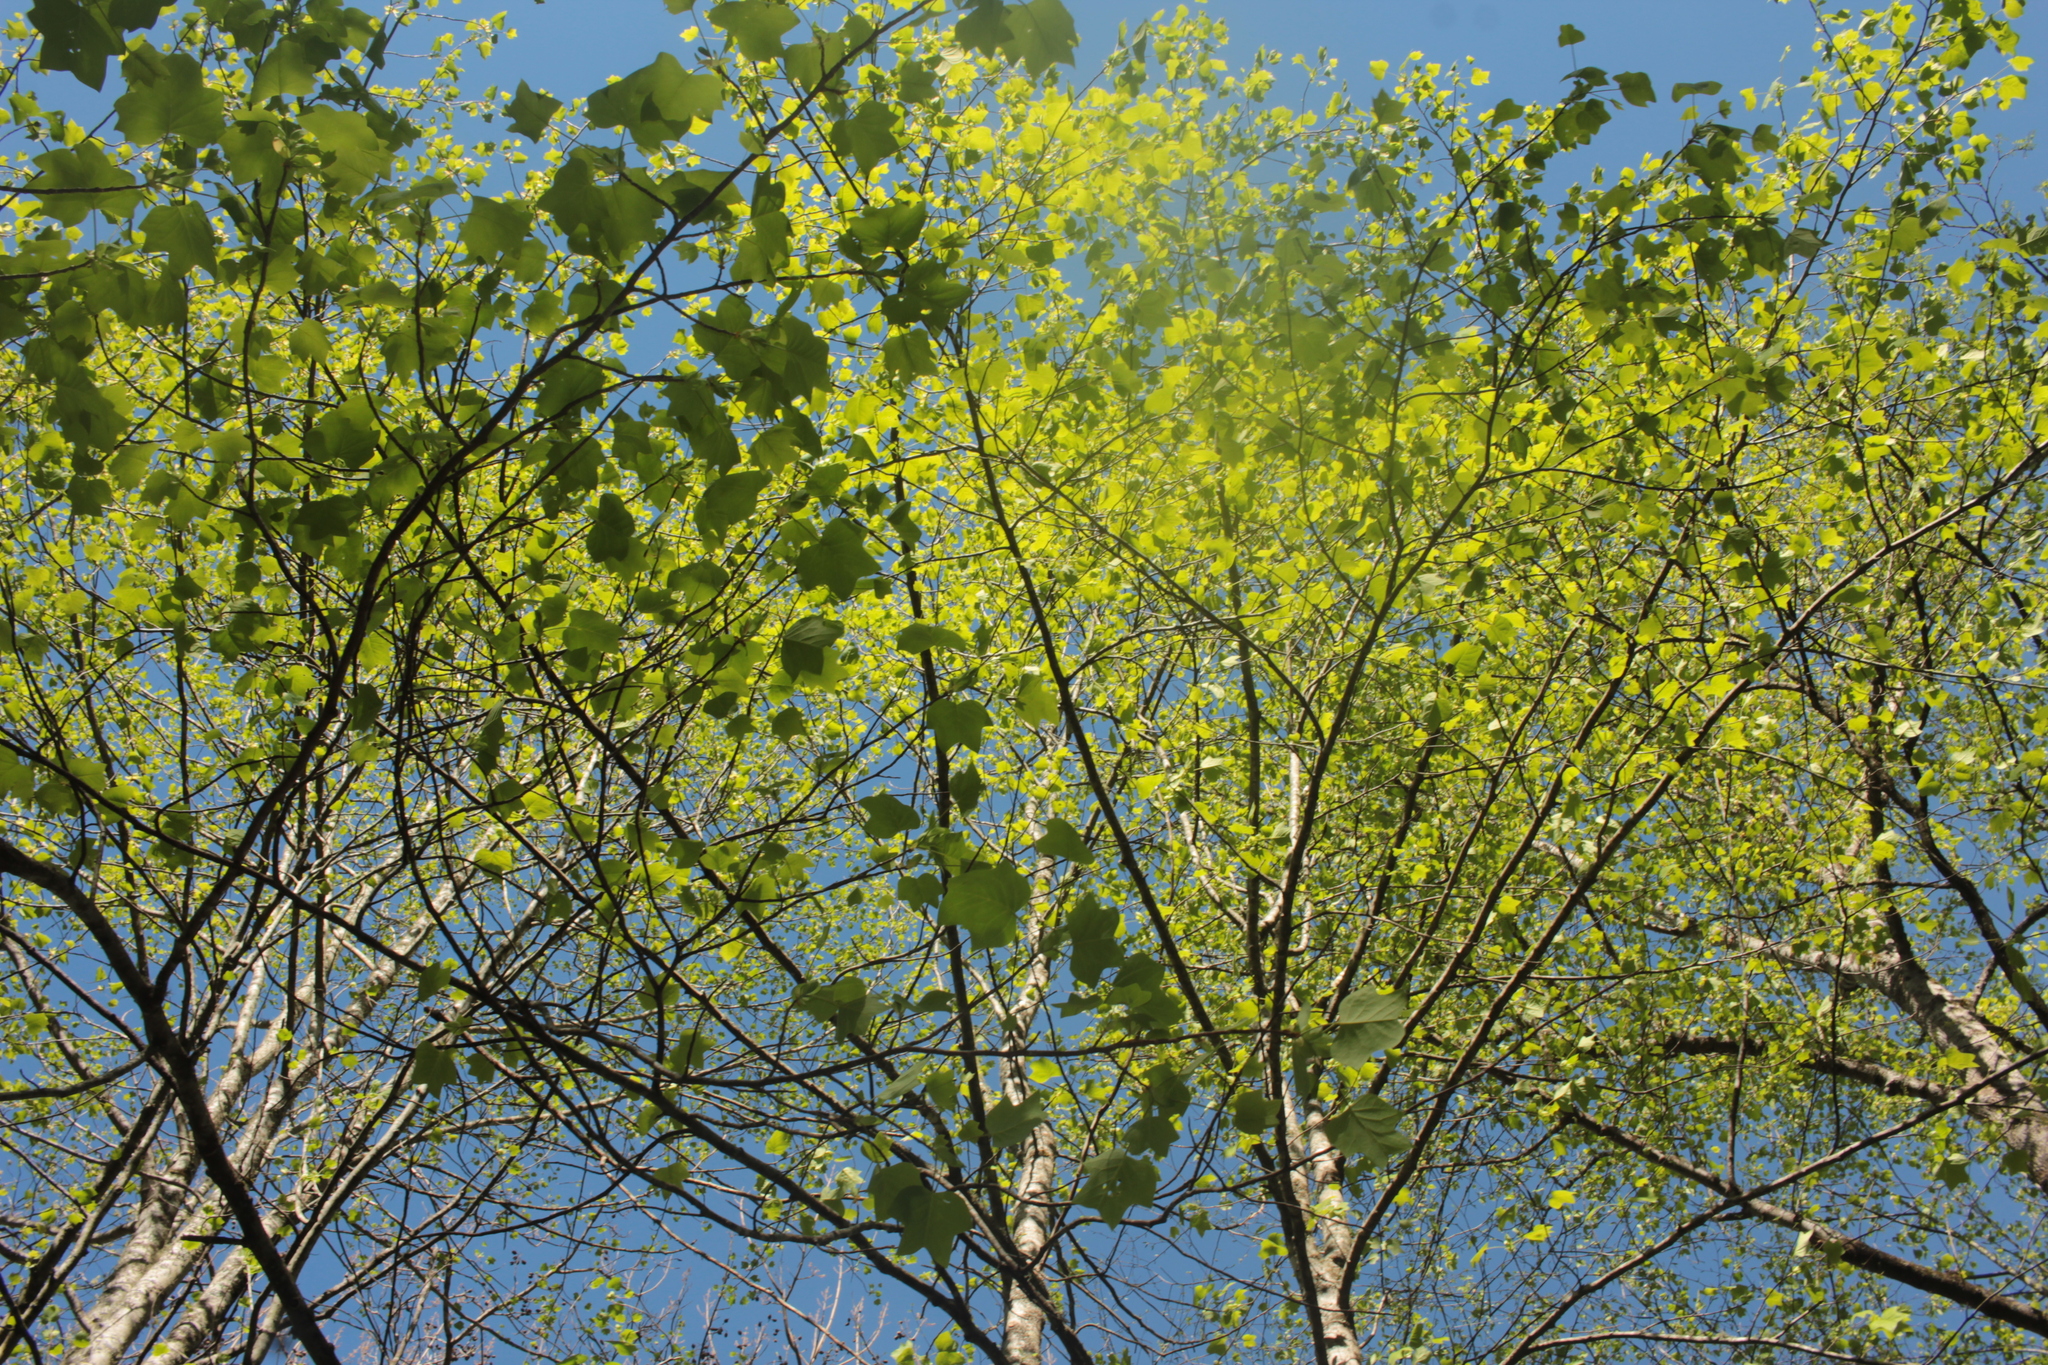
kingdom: Plantae
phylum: Tracheophyta
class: Magnoliopsida
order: Magnoliales
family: Magnoliaceae
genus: Liriodendron
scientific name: Liriodendron tulipifera
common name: Tulip tree
